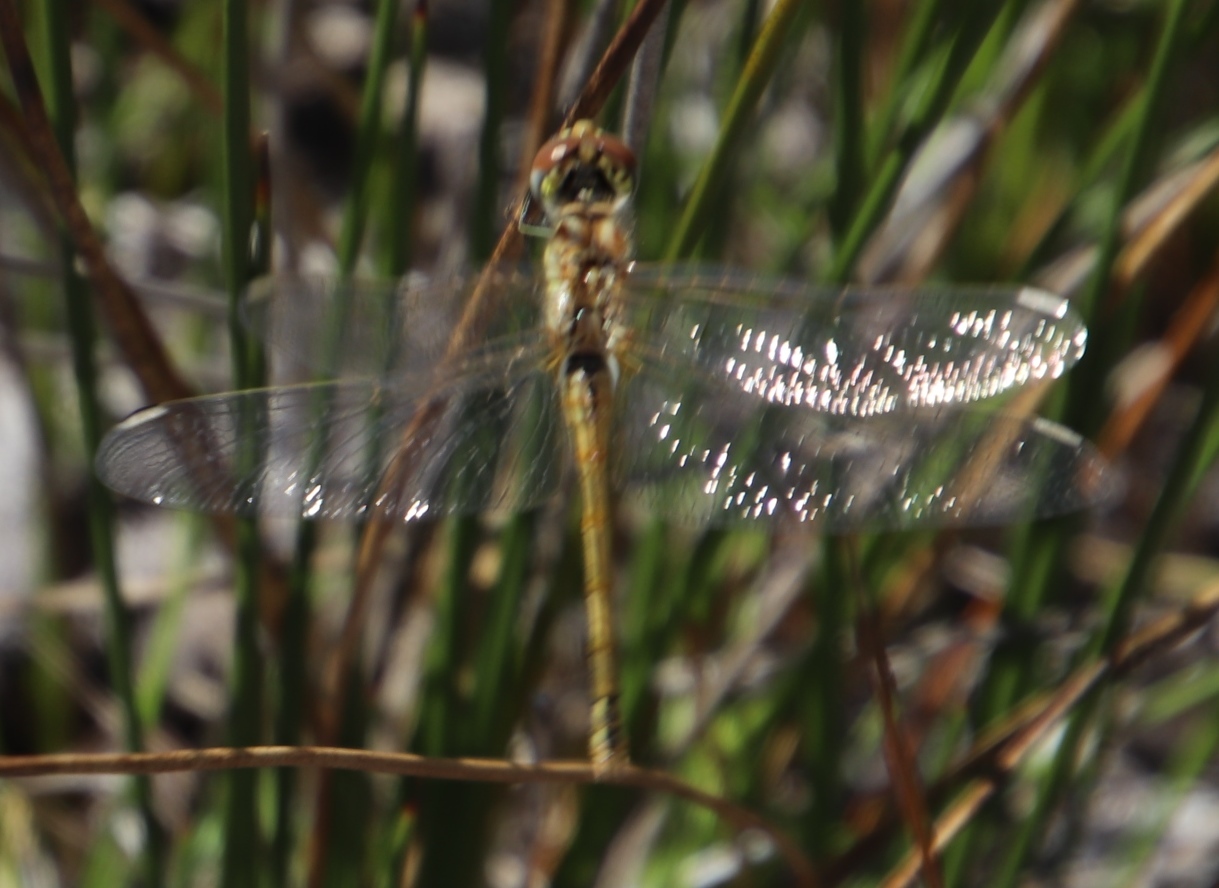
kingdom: Animalia
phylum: Arthropoda
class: Insecta
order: Odonata
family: Libellulidae
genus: Sympetrum
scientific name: Sympetrum fonscolombii
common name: Red-veined darter
